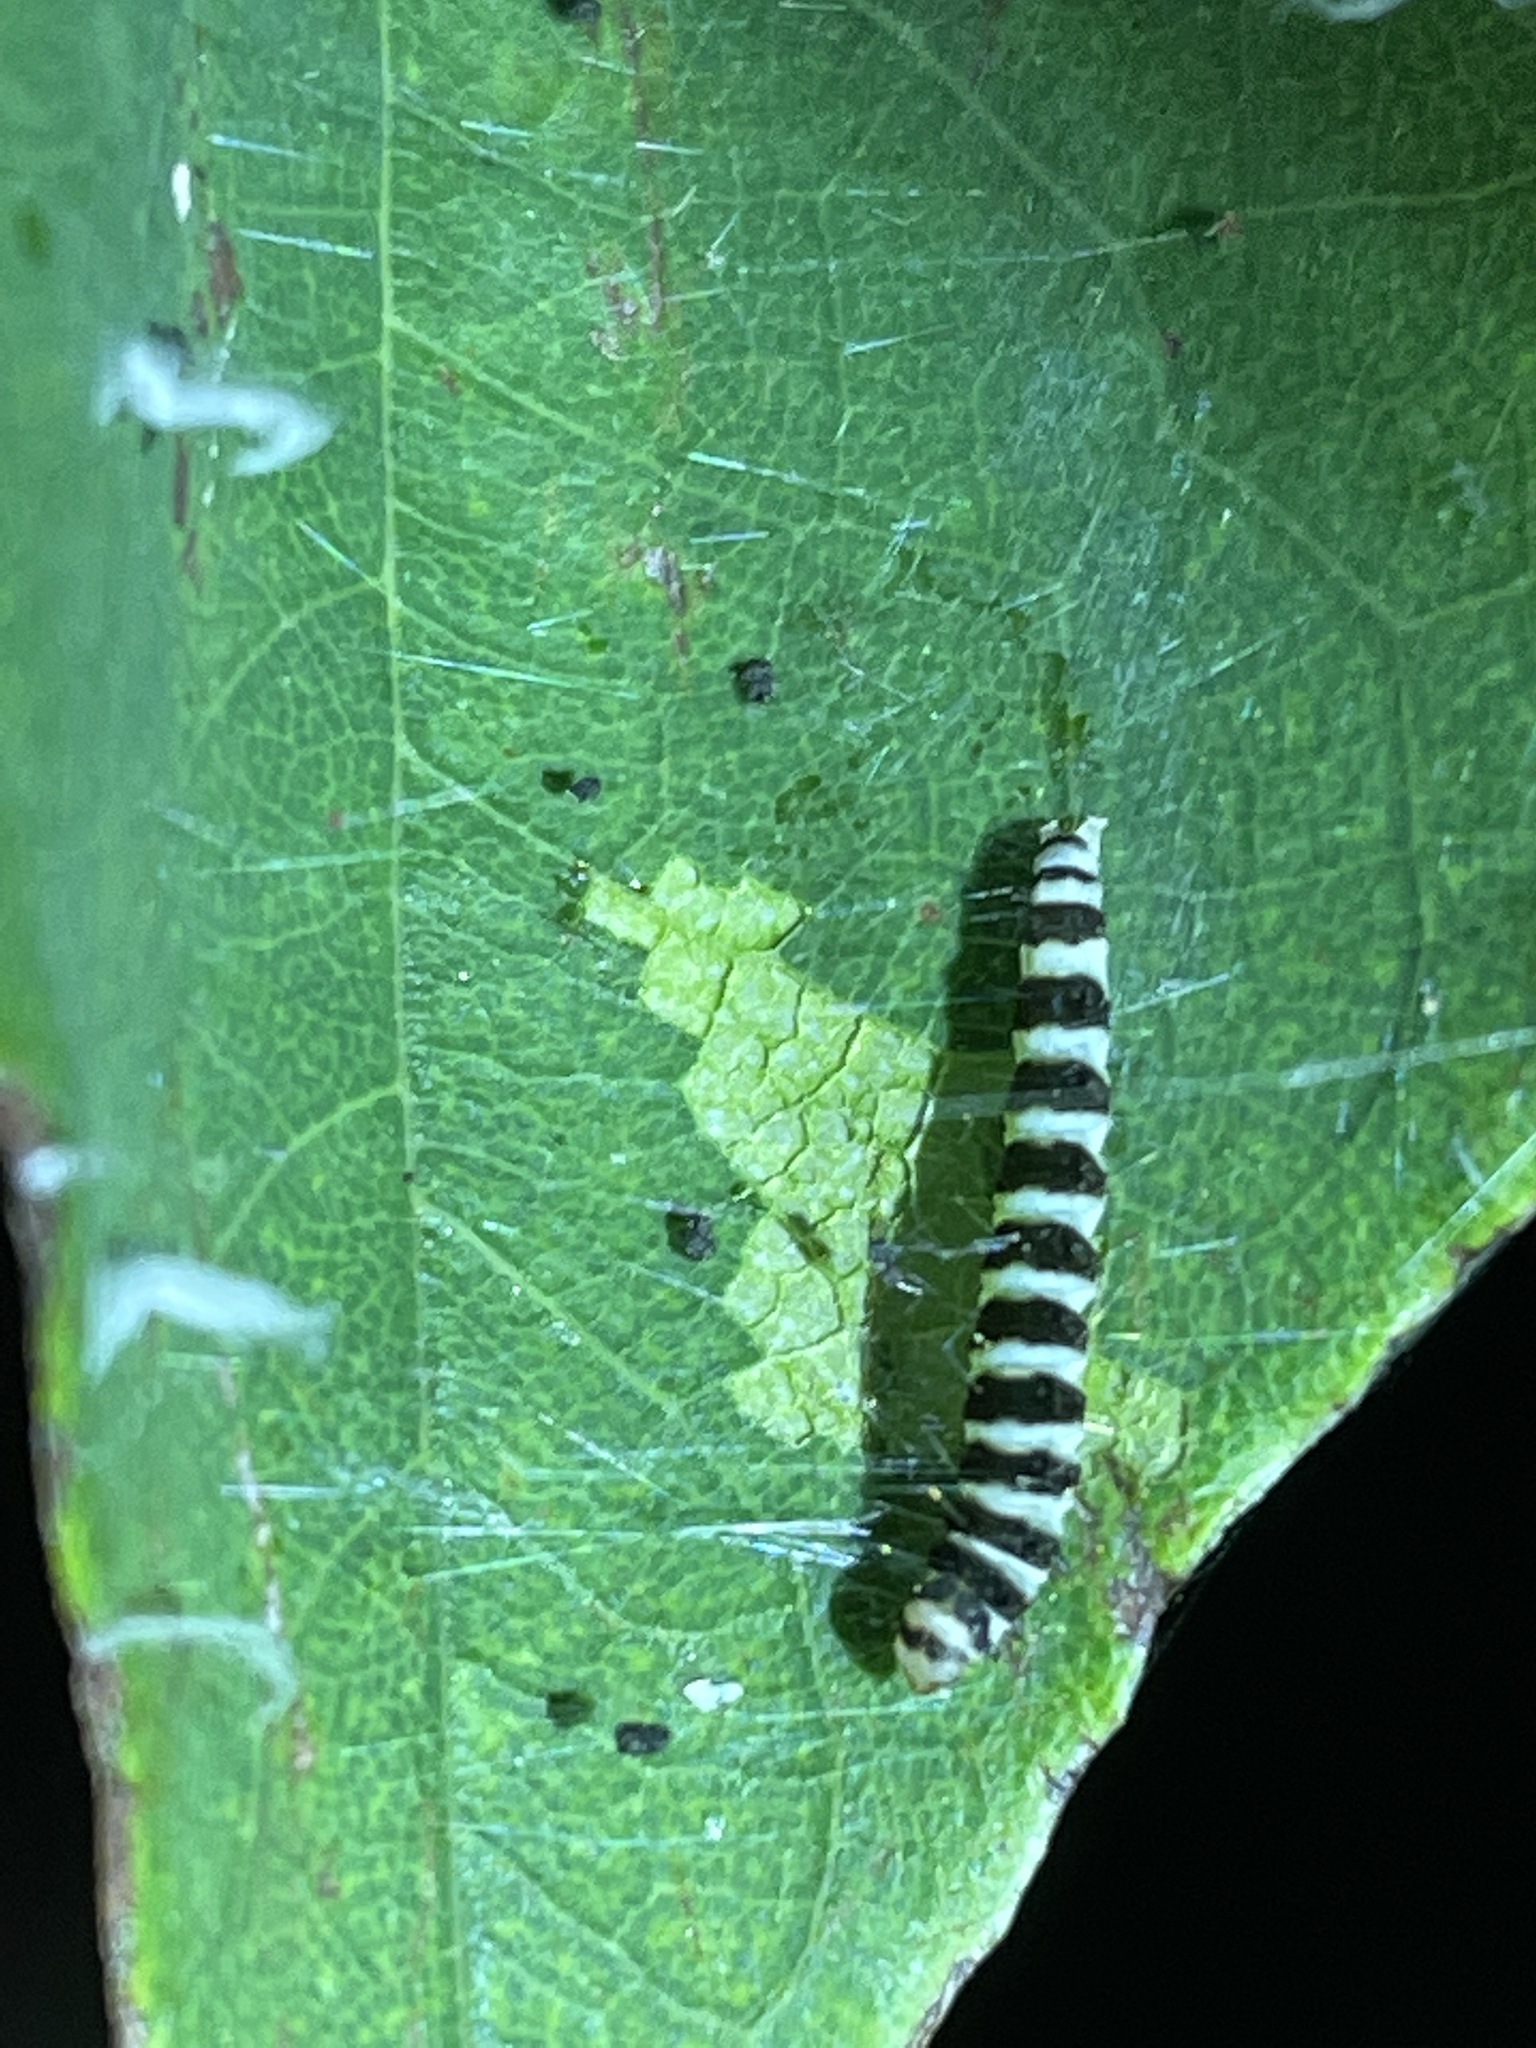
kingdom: Animalia
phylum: Arthropoda
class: Insecta
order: Lepidoptera
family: Gelechiidae
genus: Fascista
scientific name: Fascista cercerisella
